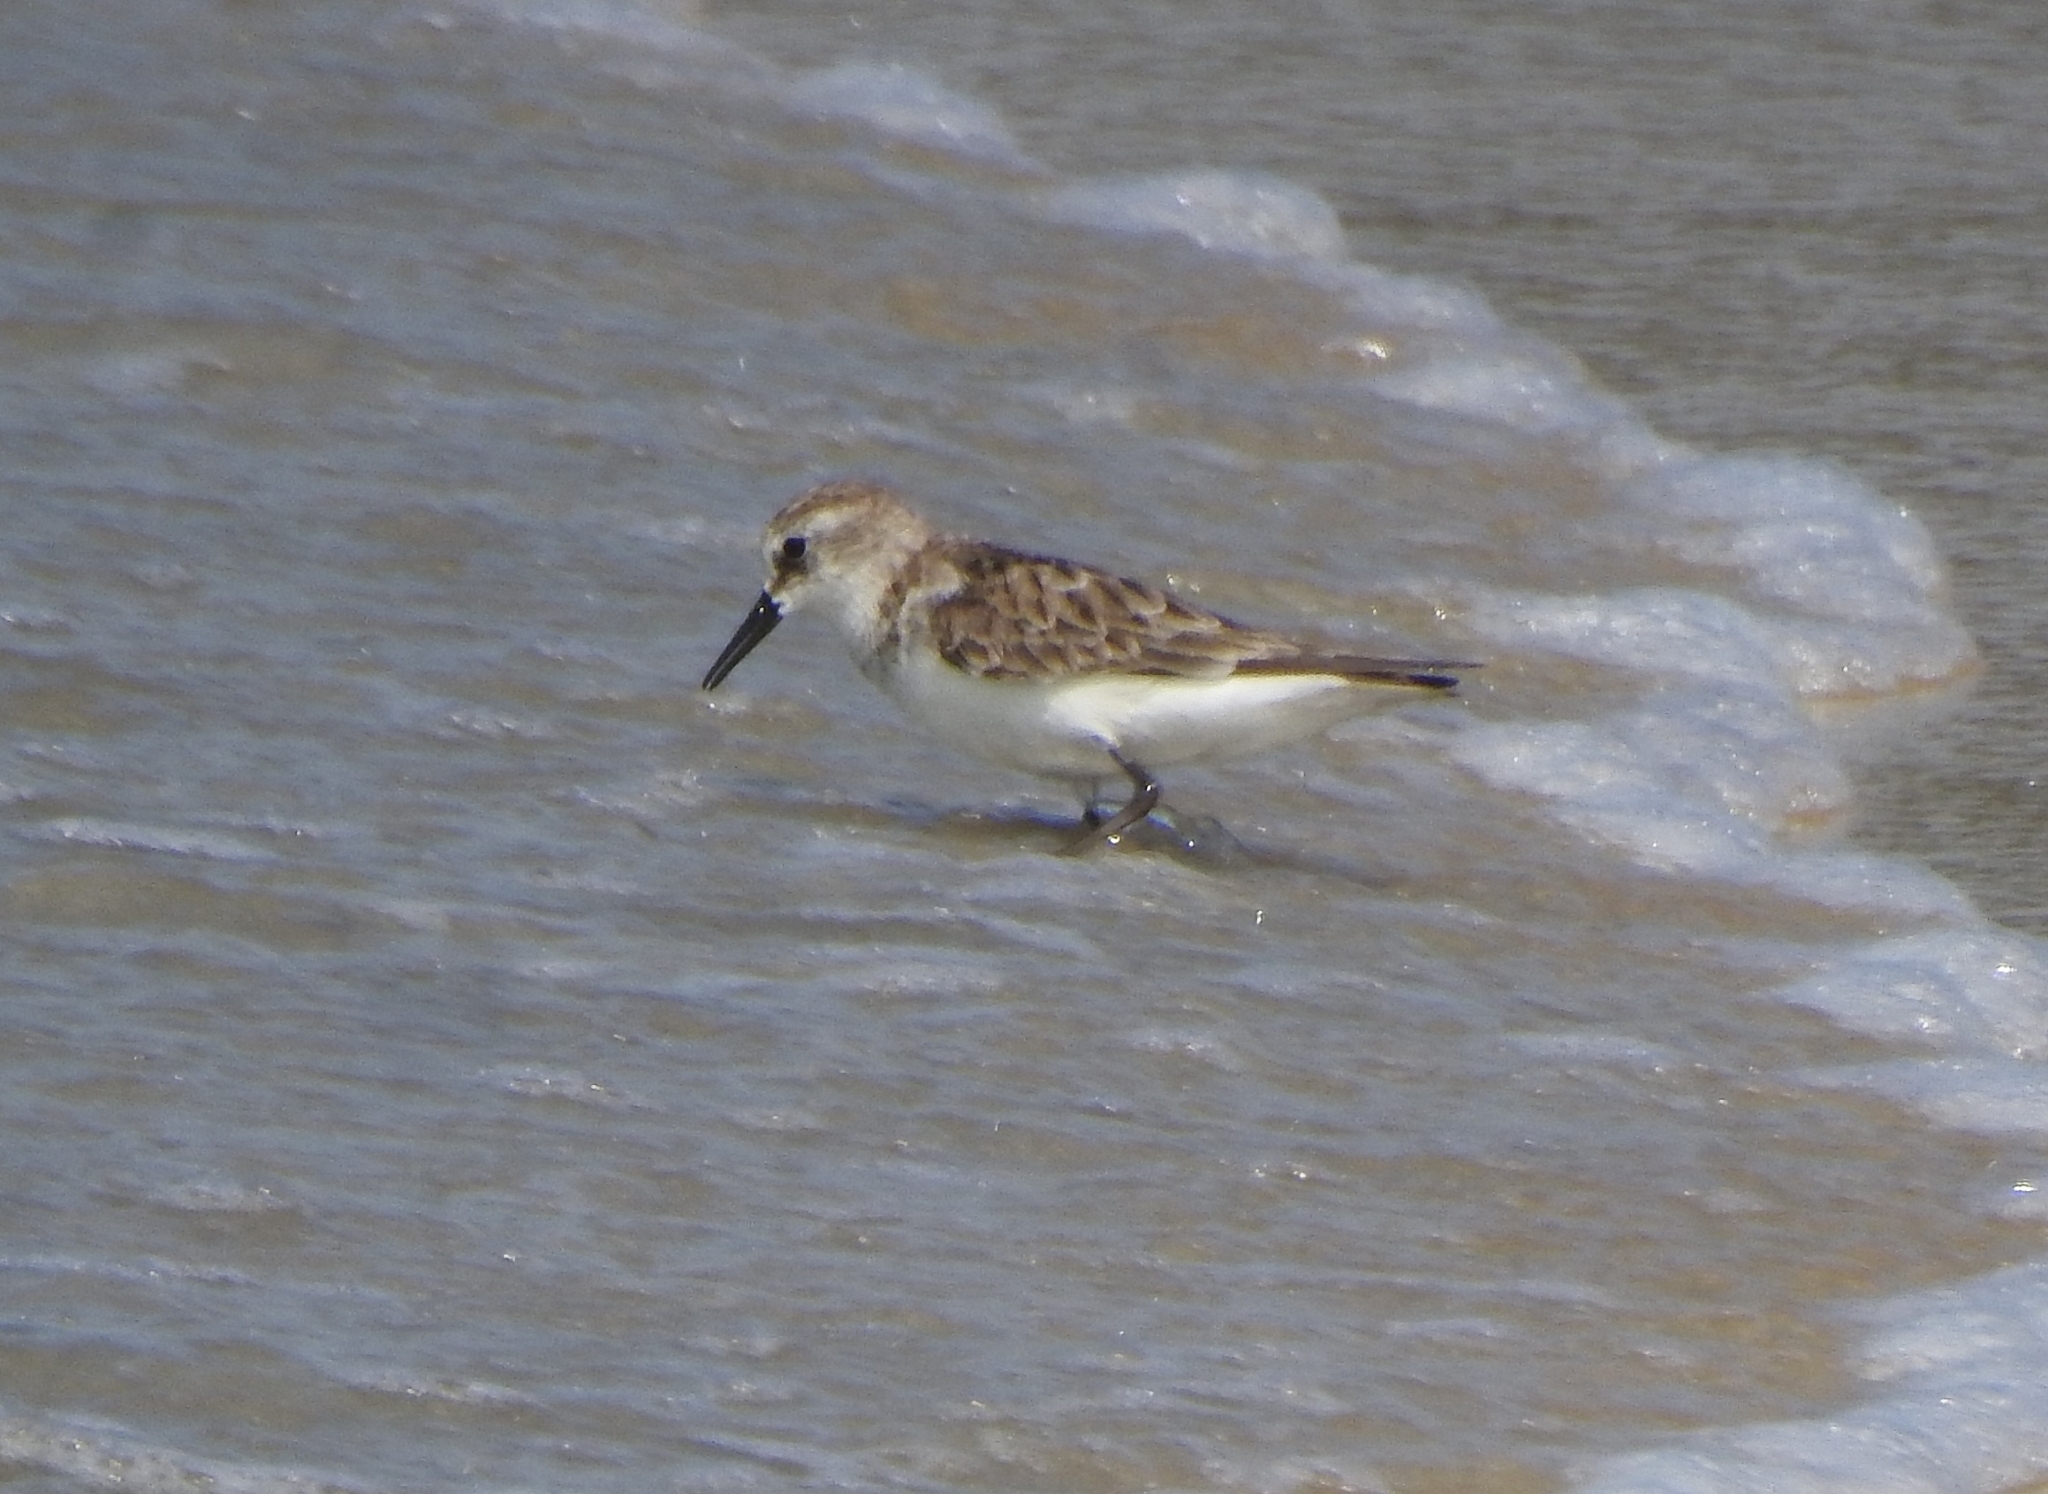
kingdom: Animalia
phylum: Chordata
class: Aves
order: Charadriiformes
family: Scolopacidae
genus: Calidris
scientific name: Calidris minuta
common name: Little stint
